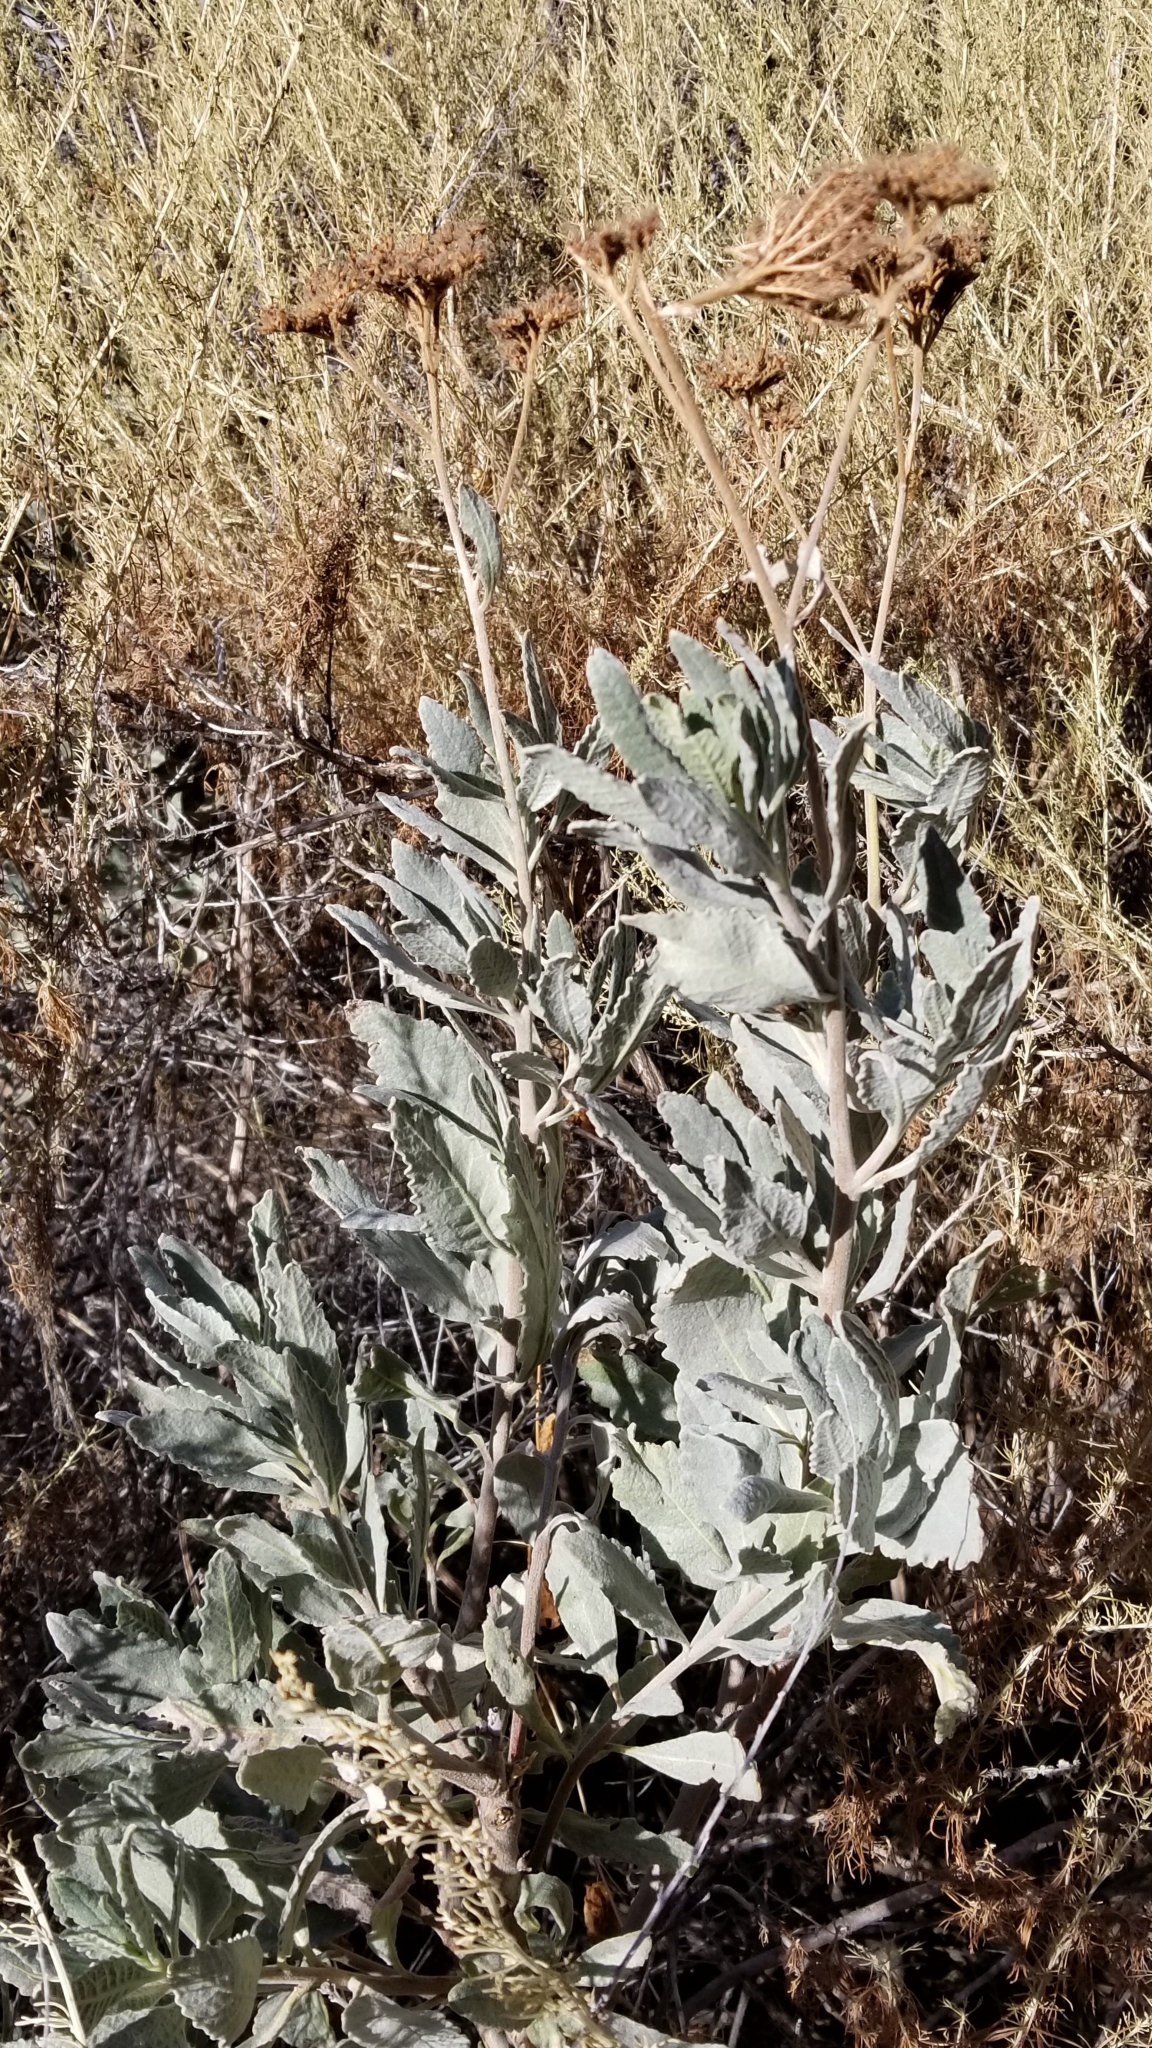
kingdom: Plantae
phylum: Tracheophyta
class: Magnoliopsida
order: Boraginales
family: Namaceae
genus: Eriodictyon
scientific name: Eriodictyon traskiae
